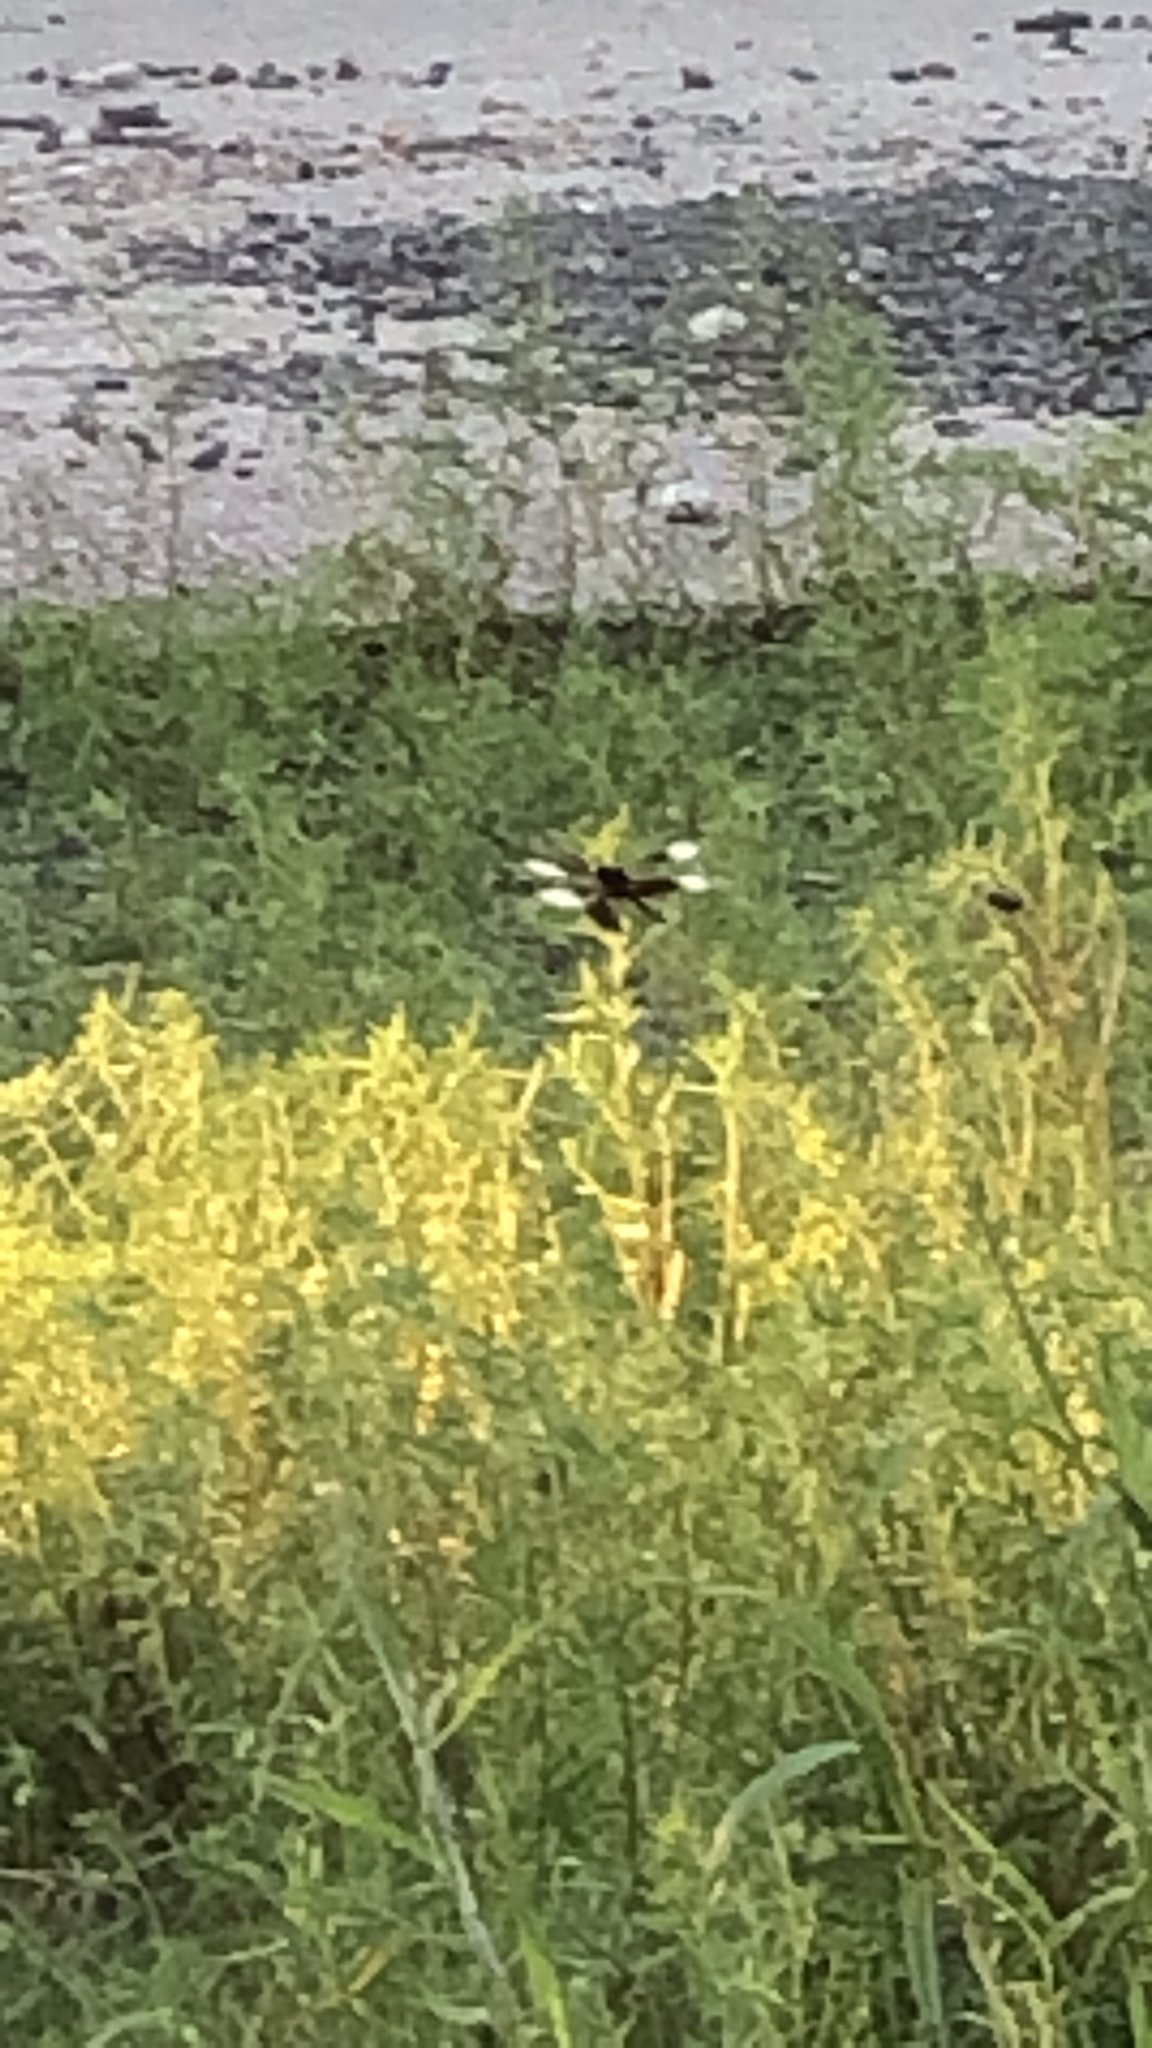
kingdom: Animalia
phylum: Arthropoda
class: Insecta
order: Odonata
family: Libellulidae
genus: Libellula
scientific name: Libellula luctuosa
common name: Widow skimmer
